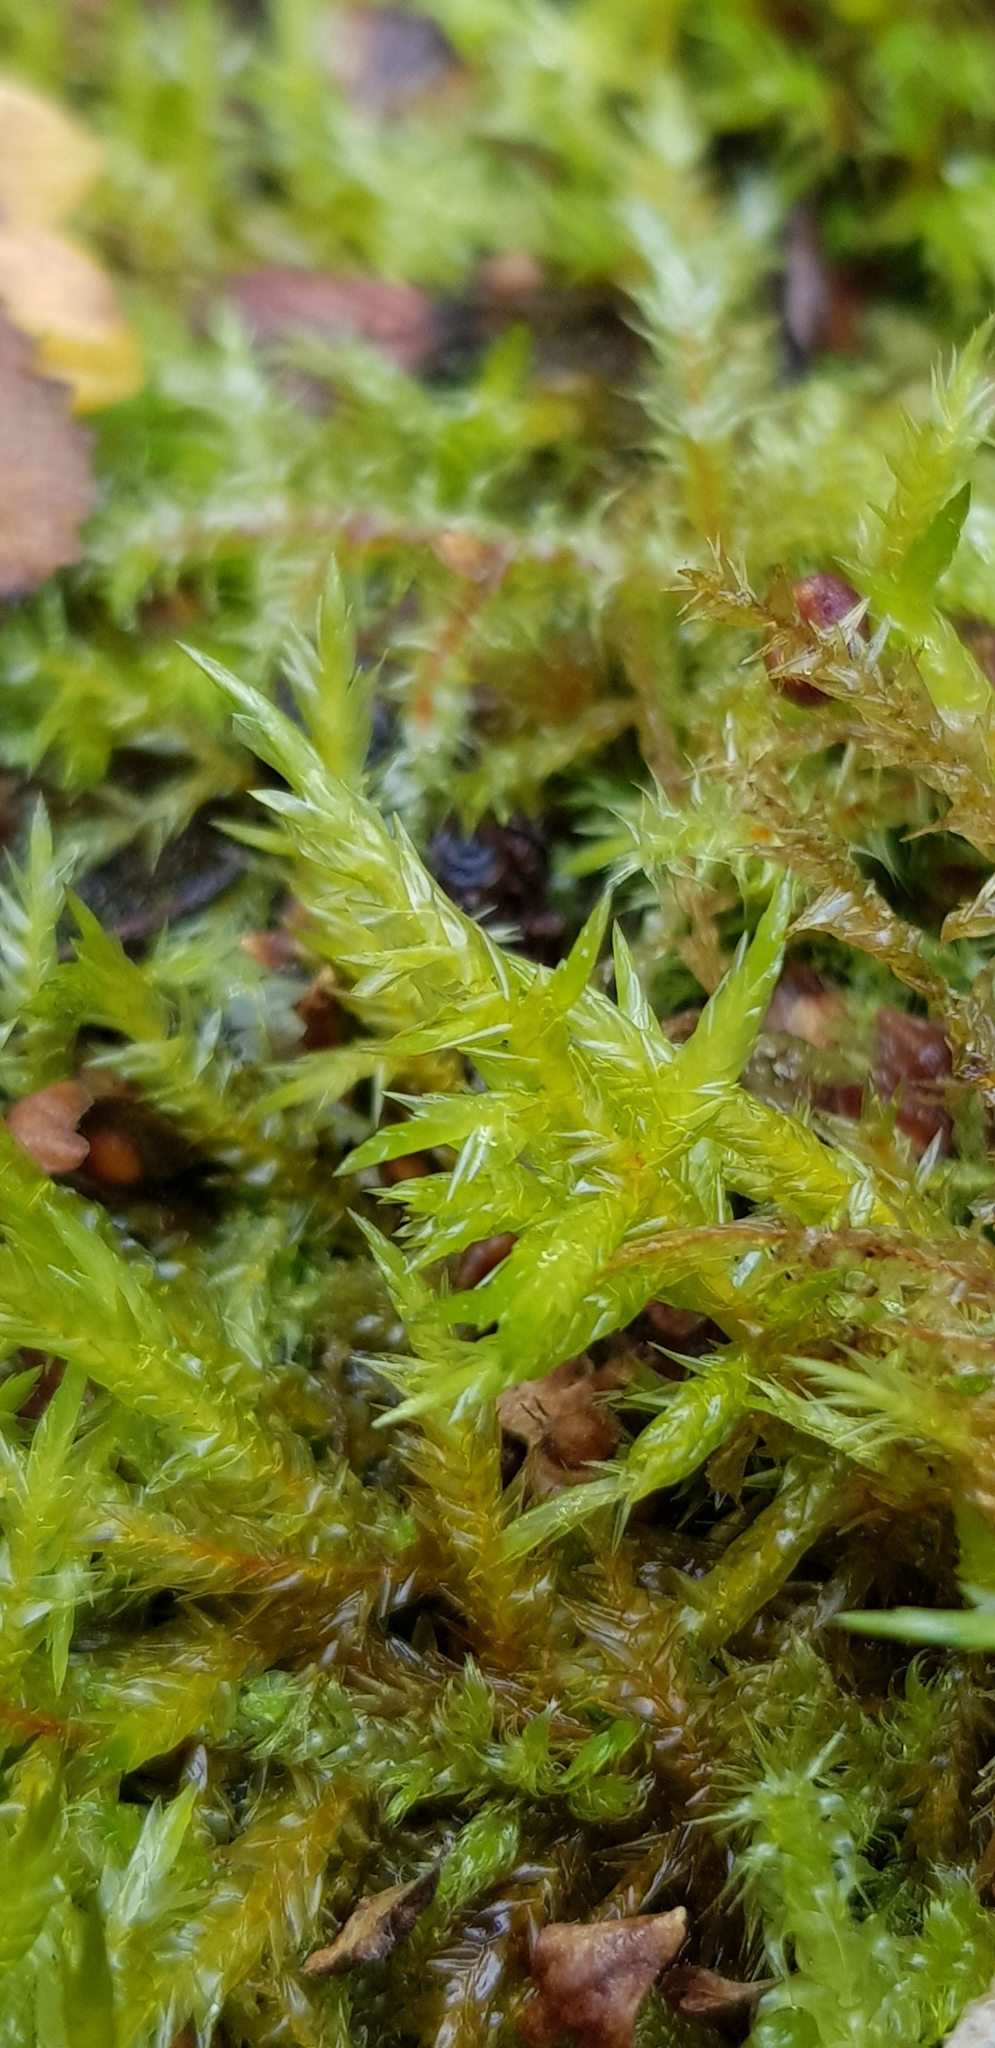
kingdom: Plantae
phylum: Bryophyta
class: Bryopsida
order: Hypnales
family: Pylaisiaceae
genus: Calliergonella
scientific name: Calliergonella cuspidata
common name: Common large wetland moss
